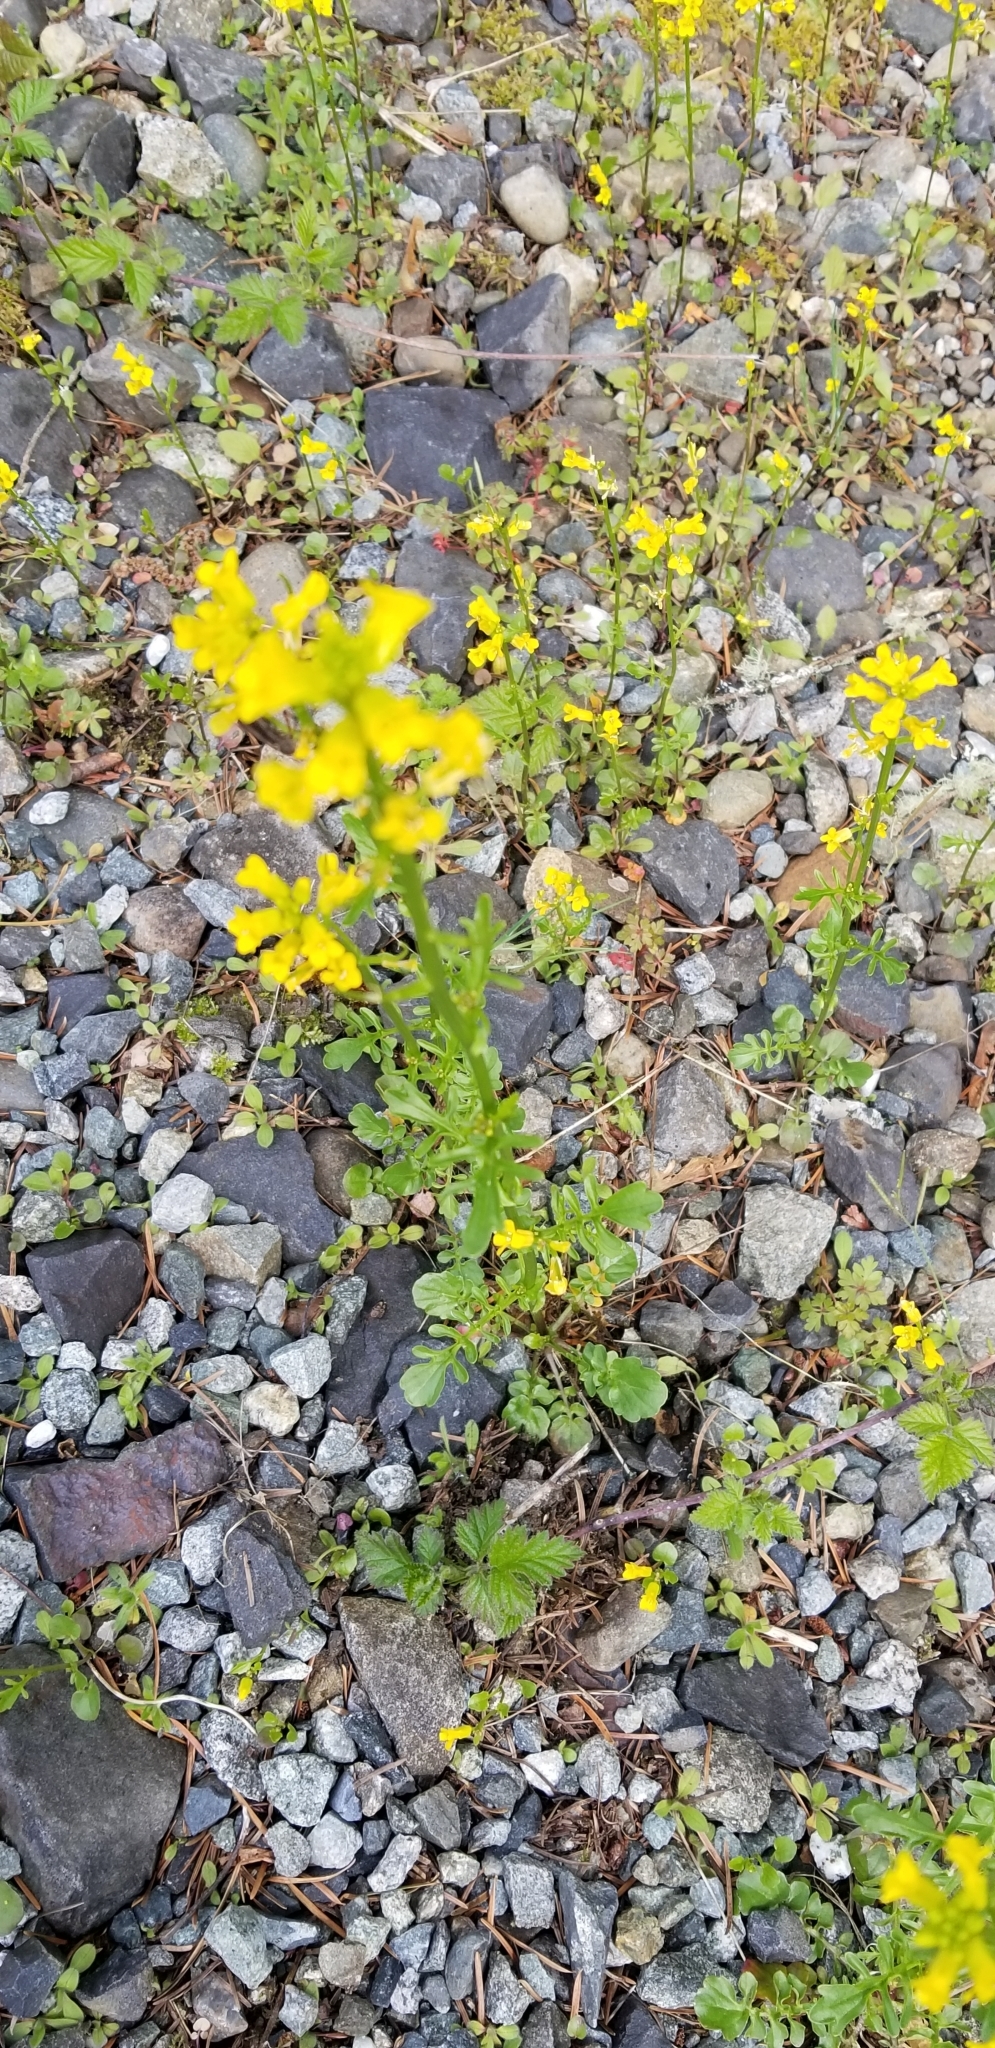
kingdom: Plantae
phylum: Tracheophyta
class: Magnoliopsida
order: Brassicales
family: Brassicaceae
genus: Barbarea
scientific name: Barbarea orthoceras
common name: American wintercress
